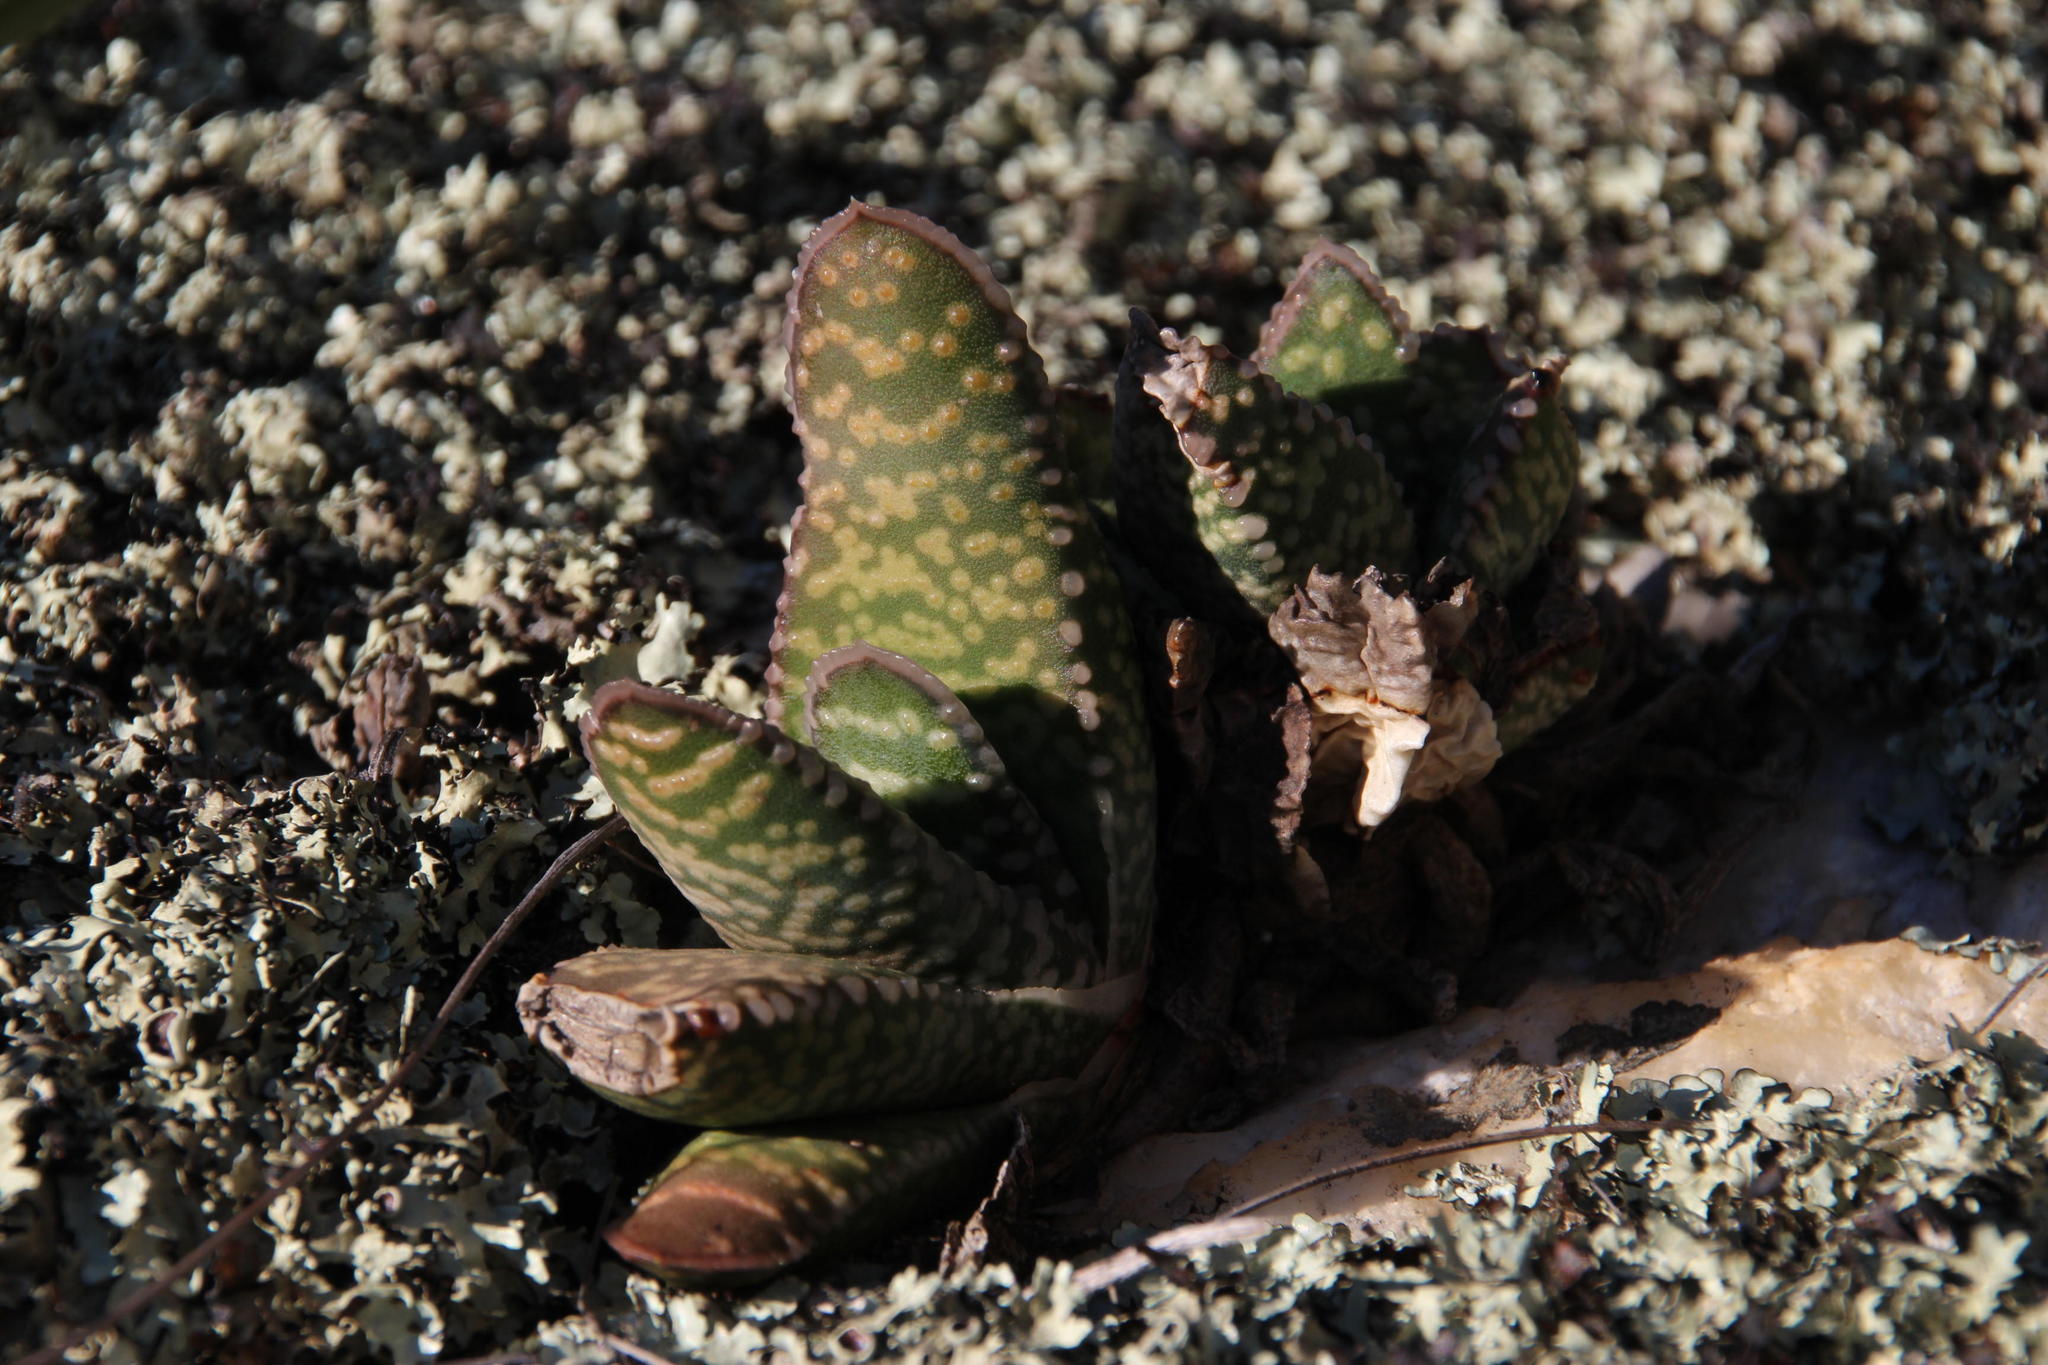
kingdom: Plantae
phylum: Tracheophyta
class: Liliopsida
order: Asparagales
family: Asphodelaceae
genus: Gasteria
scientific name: Gasteria carinata
